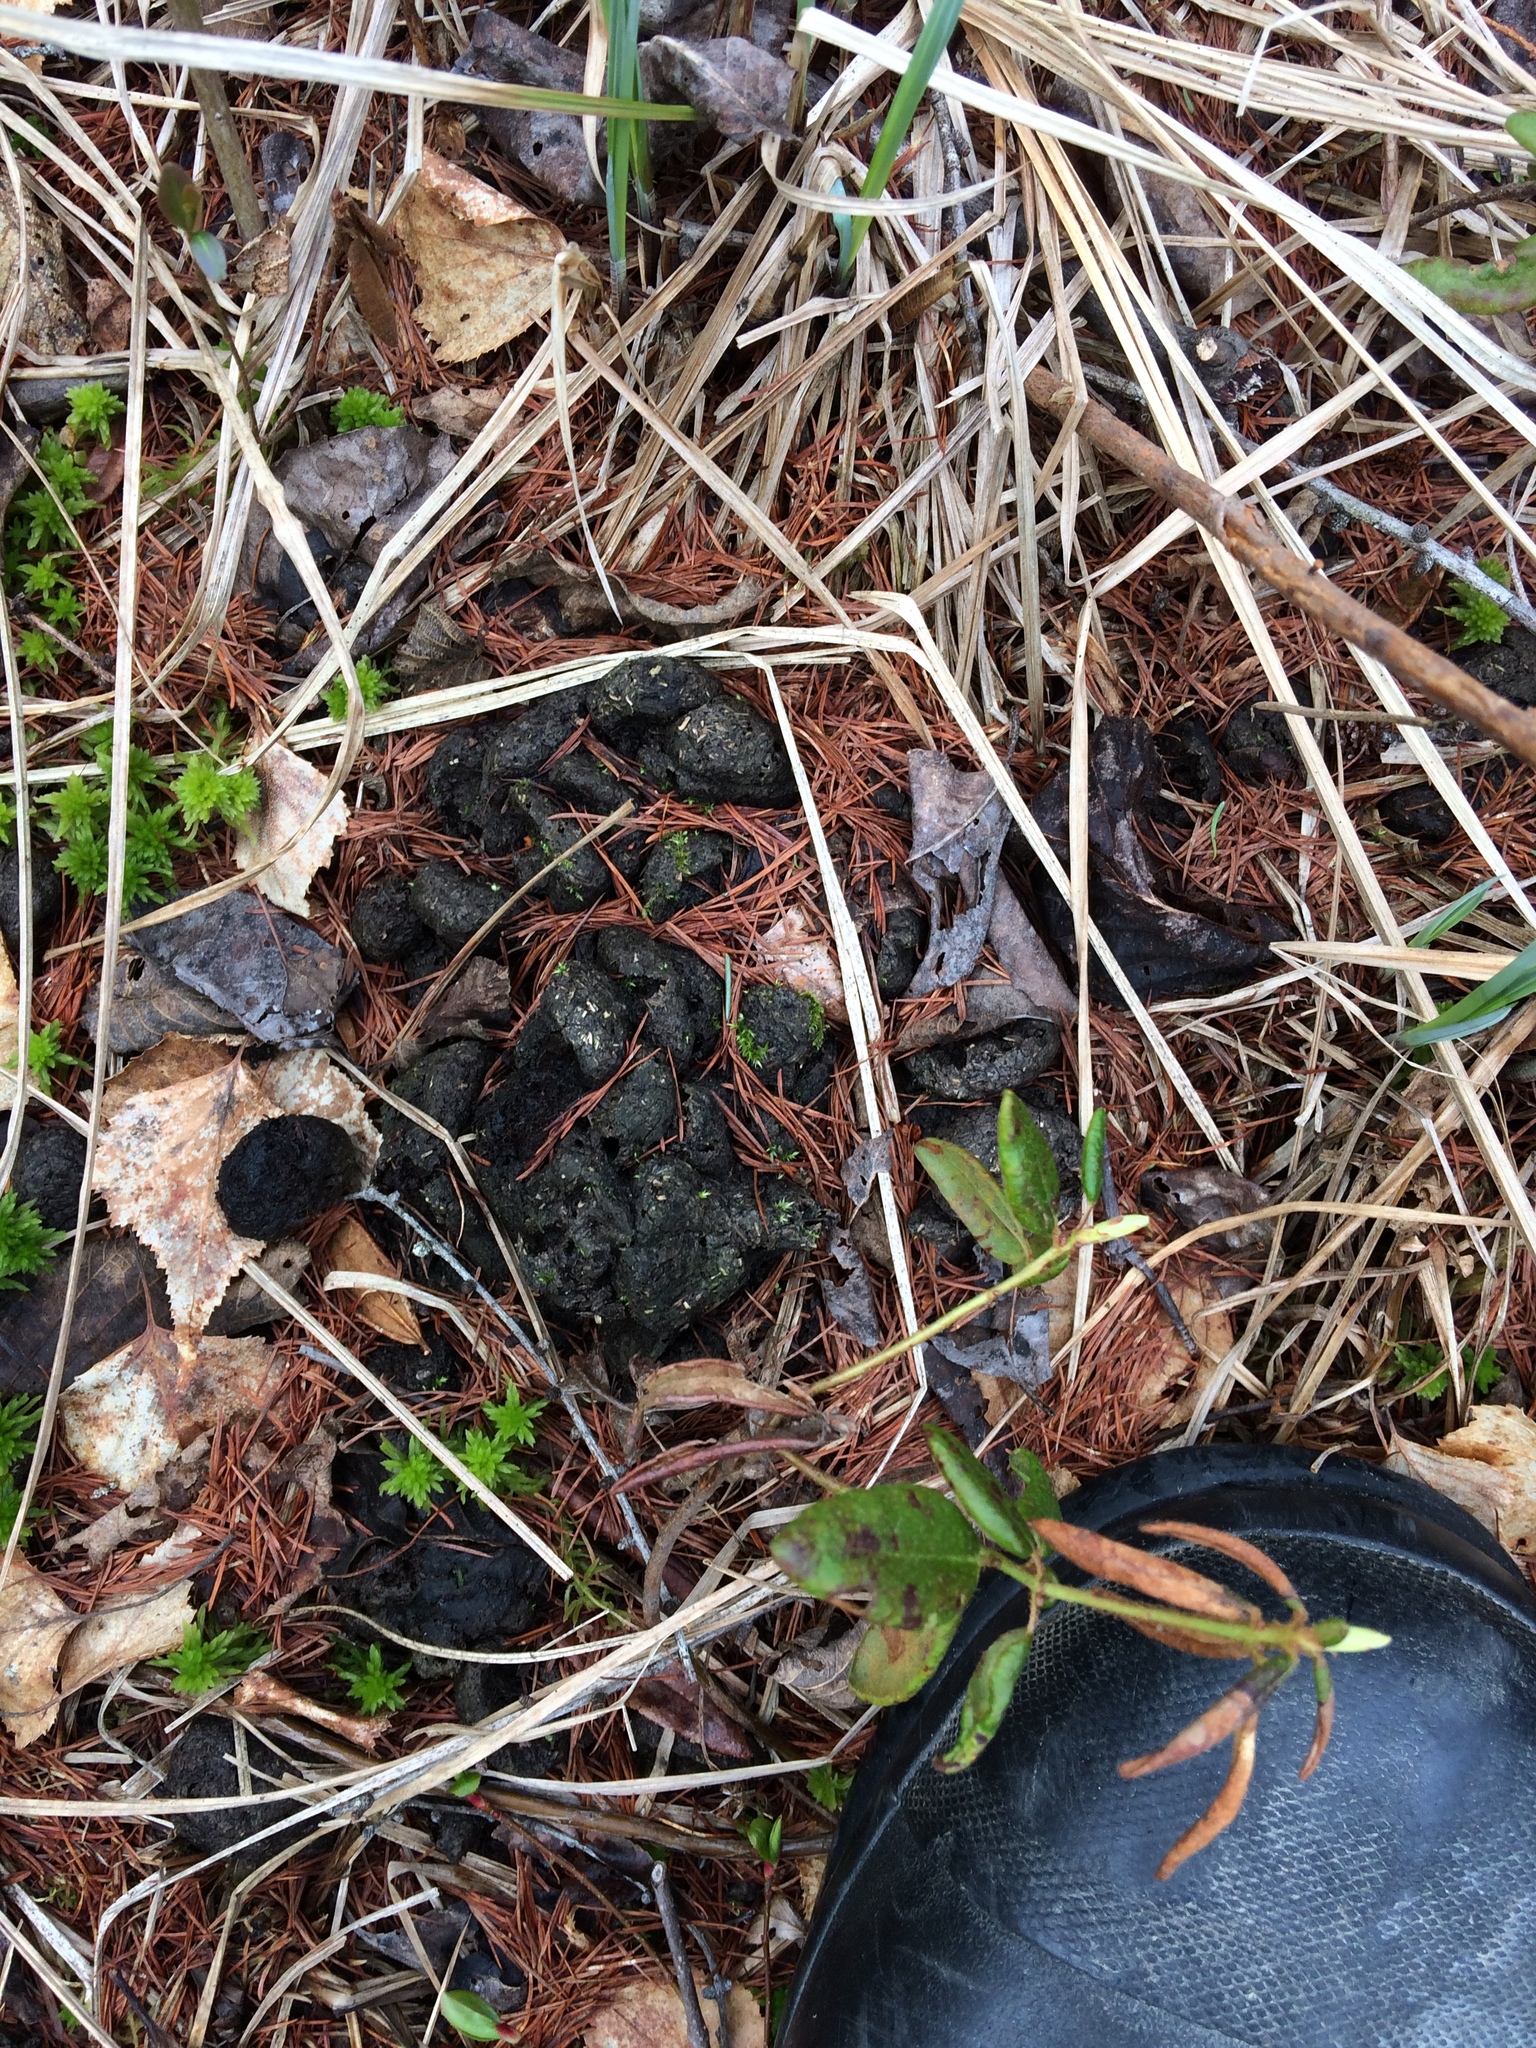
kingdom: Animalia
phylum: Chordata
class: Mammalia
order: Artiodactyla
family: Cervidae
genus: Alces
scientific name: Alces alces
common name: Moose
